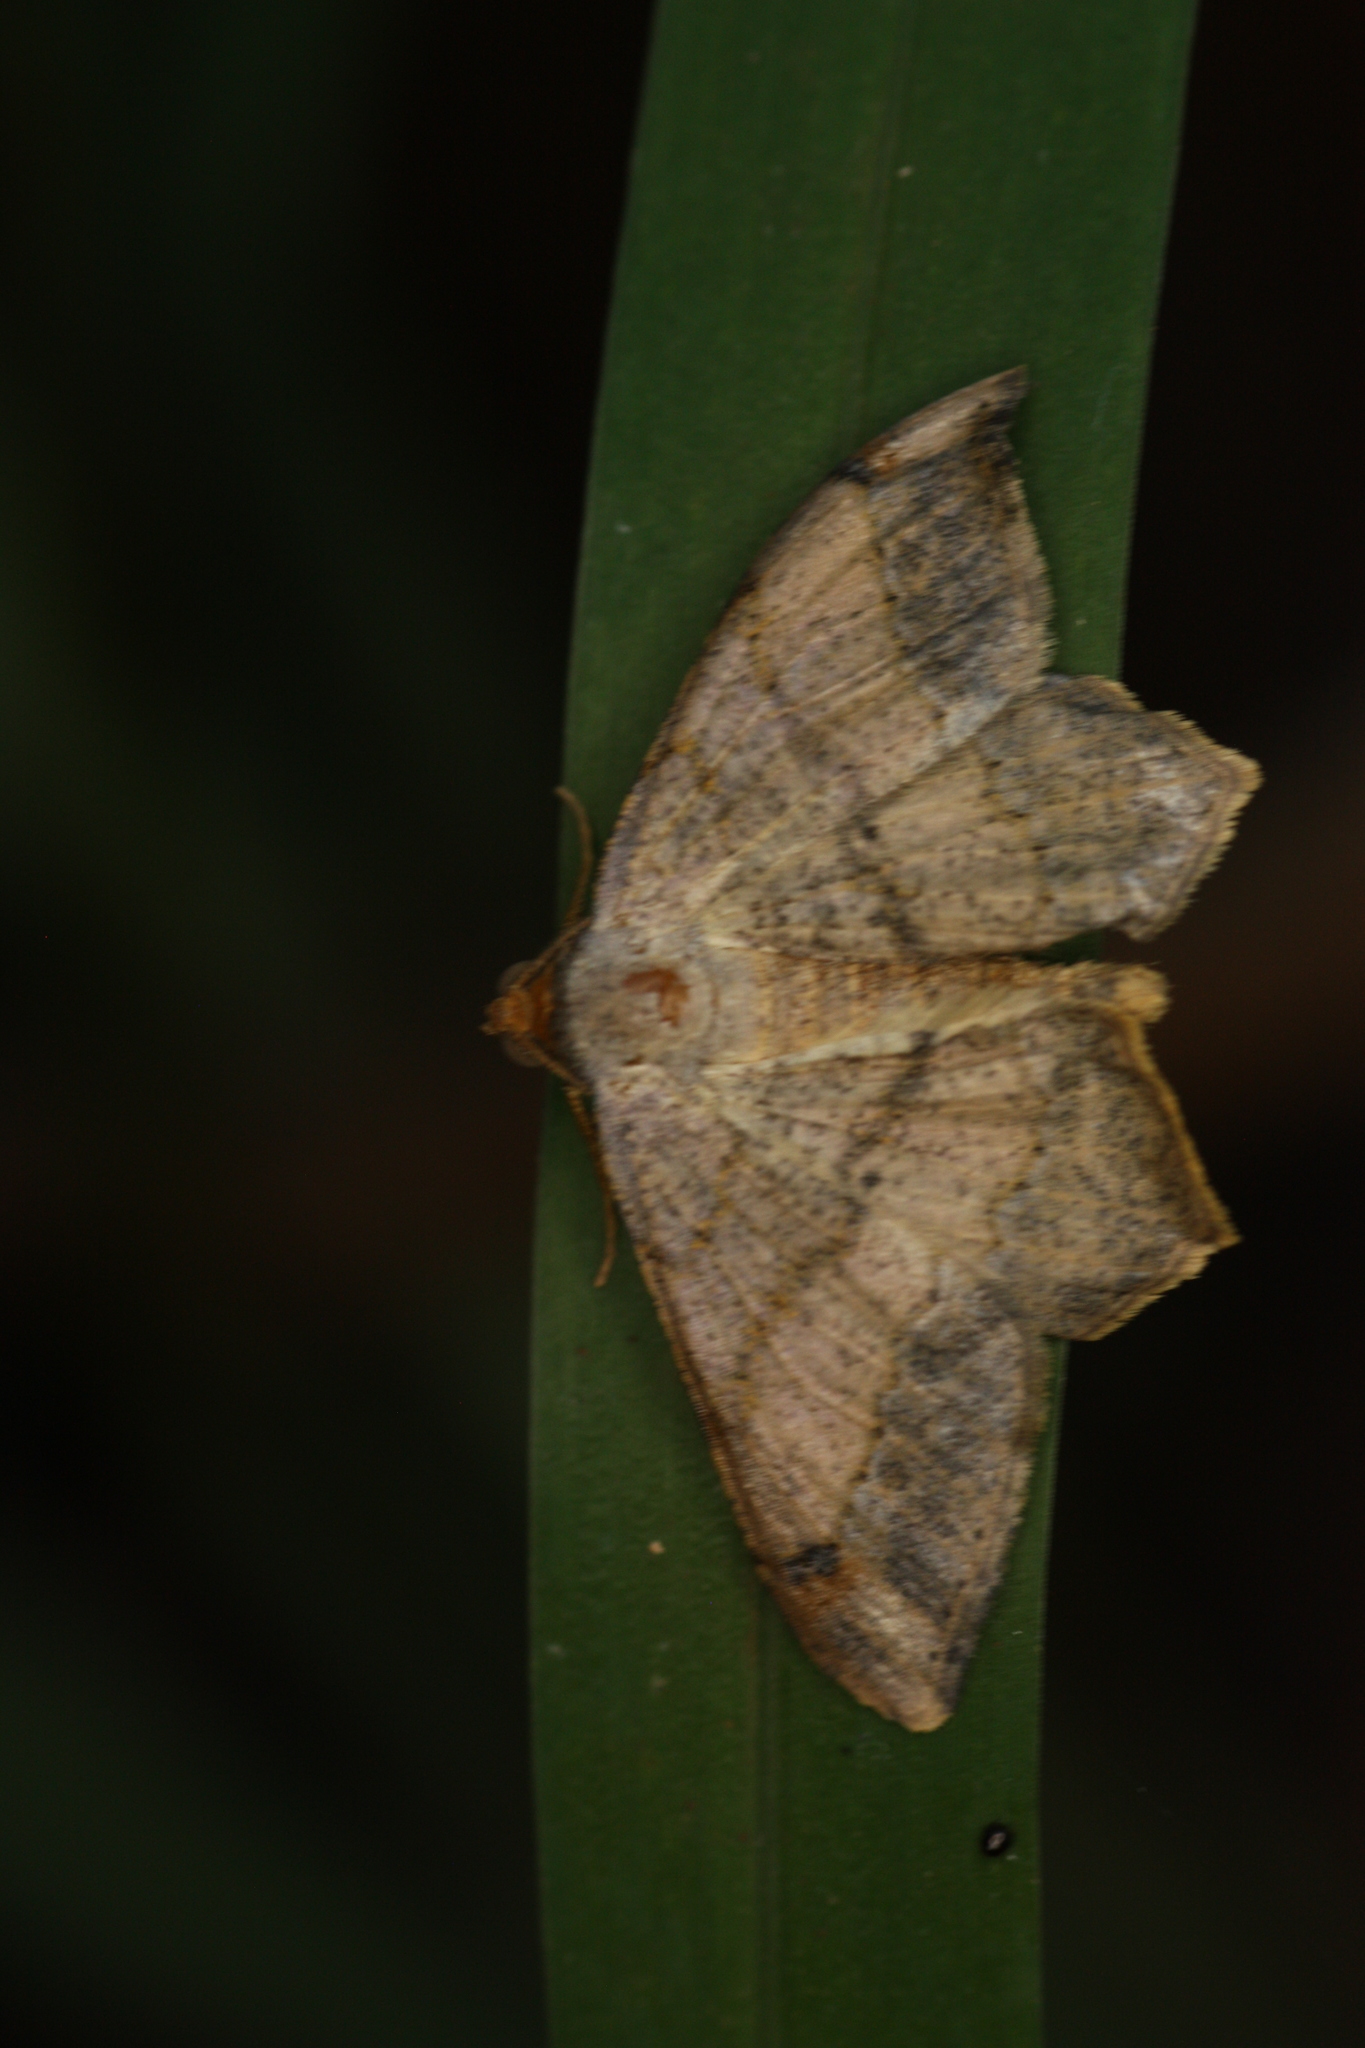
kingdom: Animalia
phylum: Arthropoda
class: Insecta
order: Lepidoptera
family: Geometridae
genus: Macaria
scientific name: Macaria abydata
